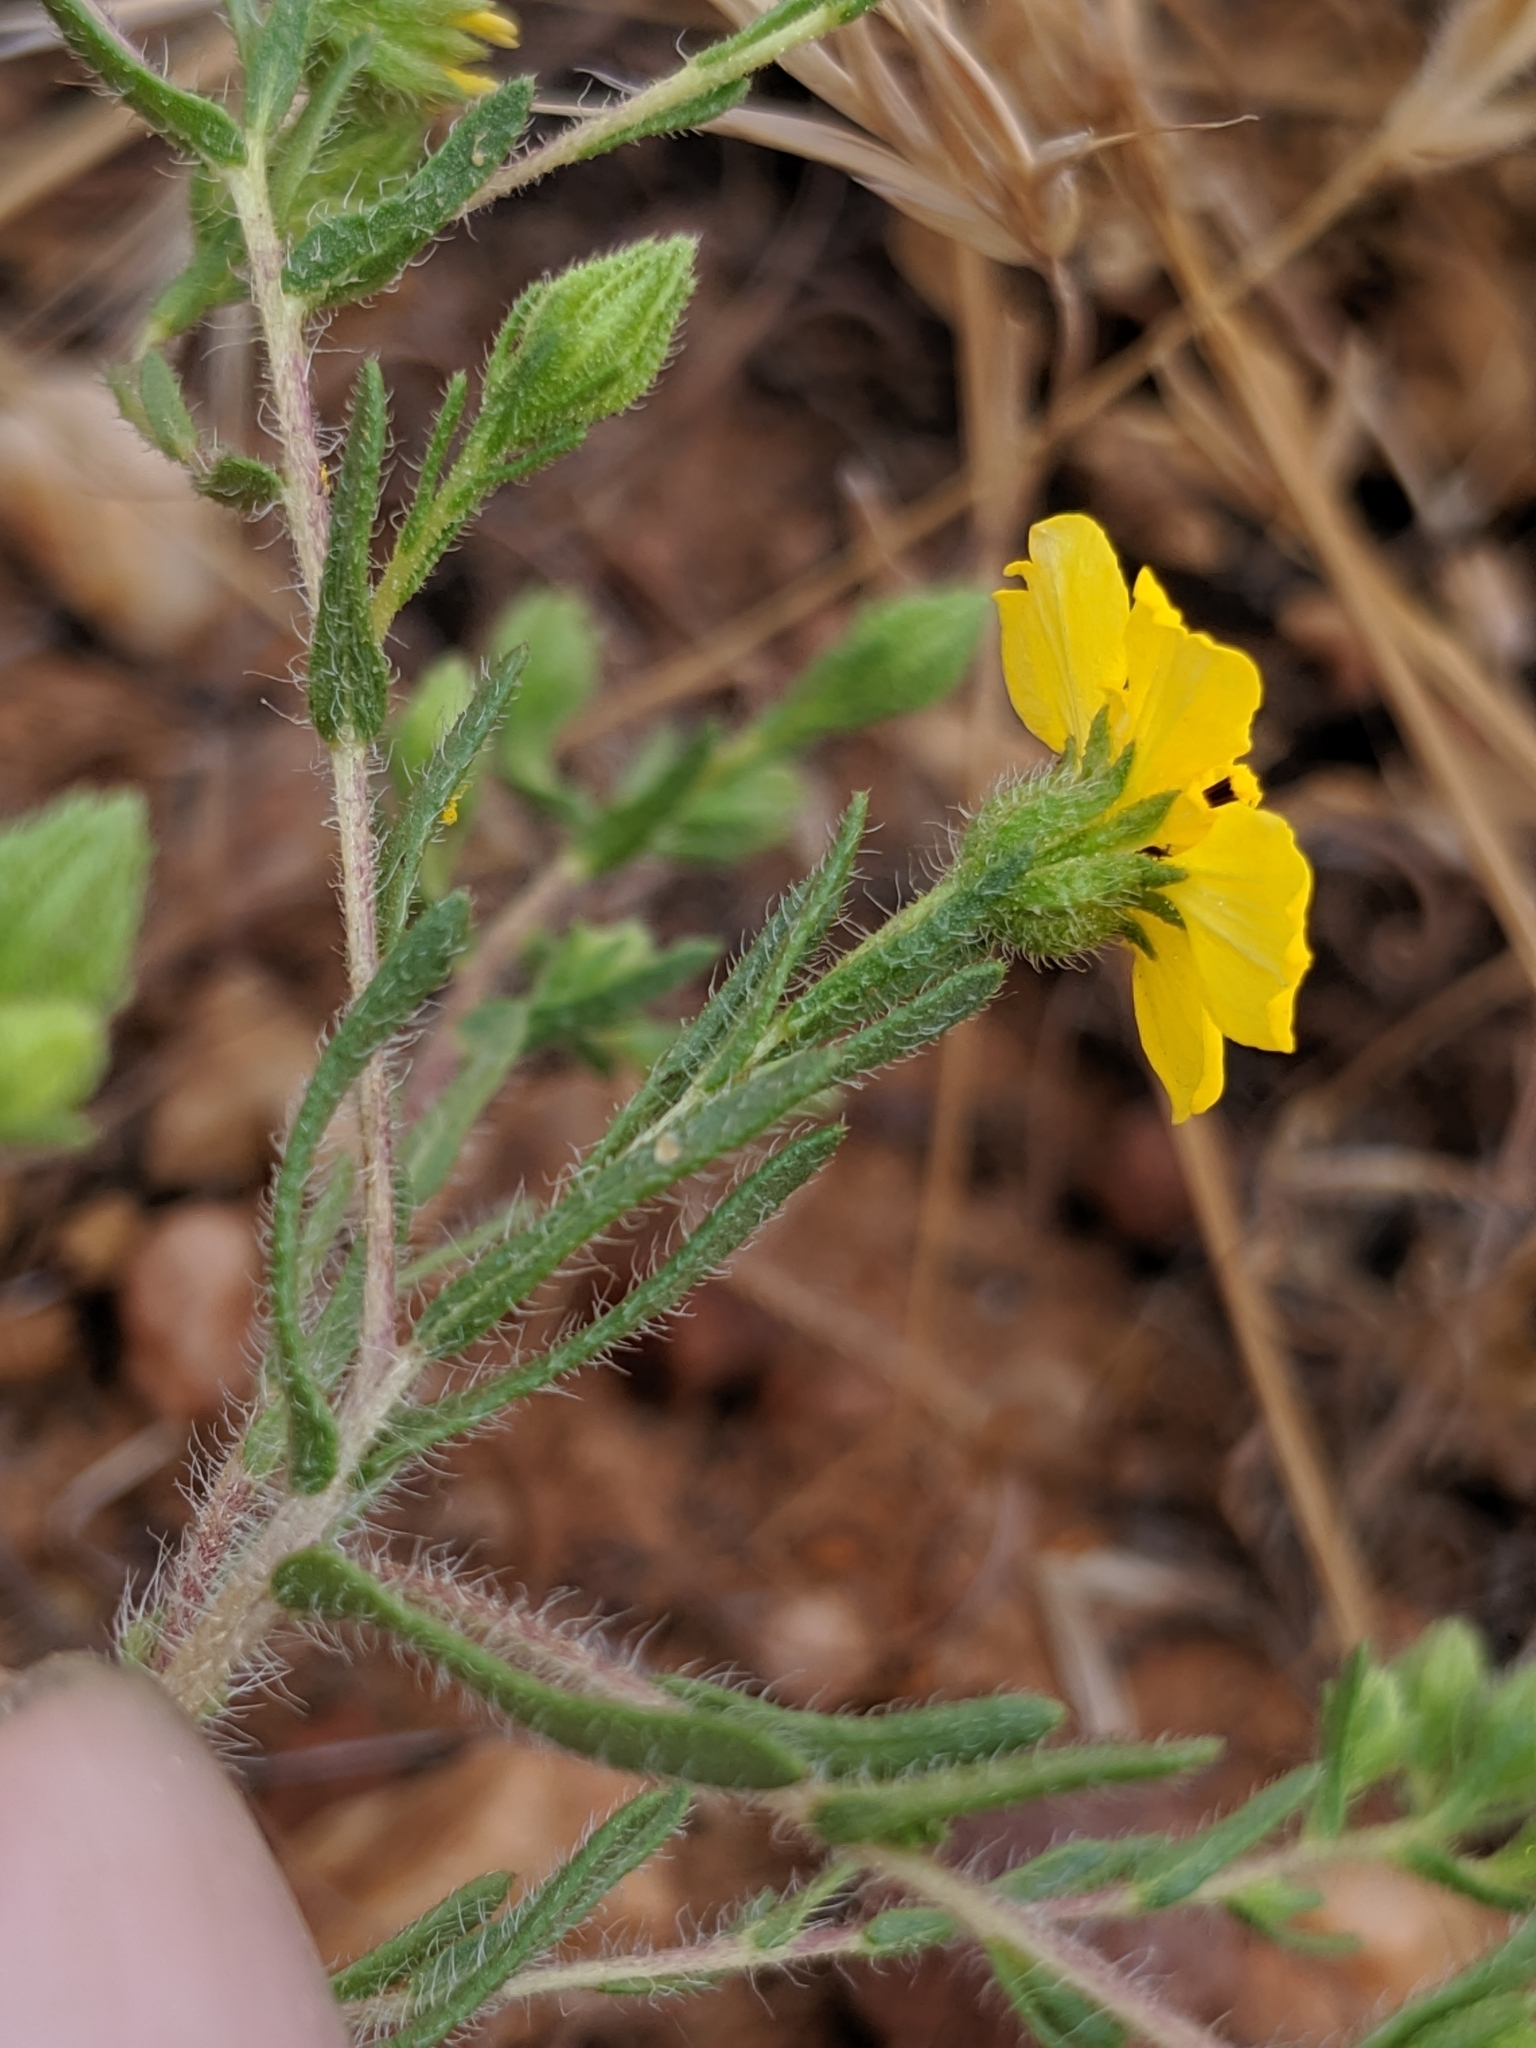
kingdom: Plantae
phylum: Tracheophyta
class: Magnoliopsida
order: Asterales
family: Asteraceae
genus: Deinandra
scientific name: Deinandra pentactis
